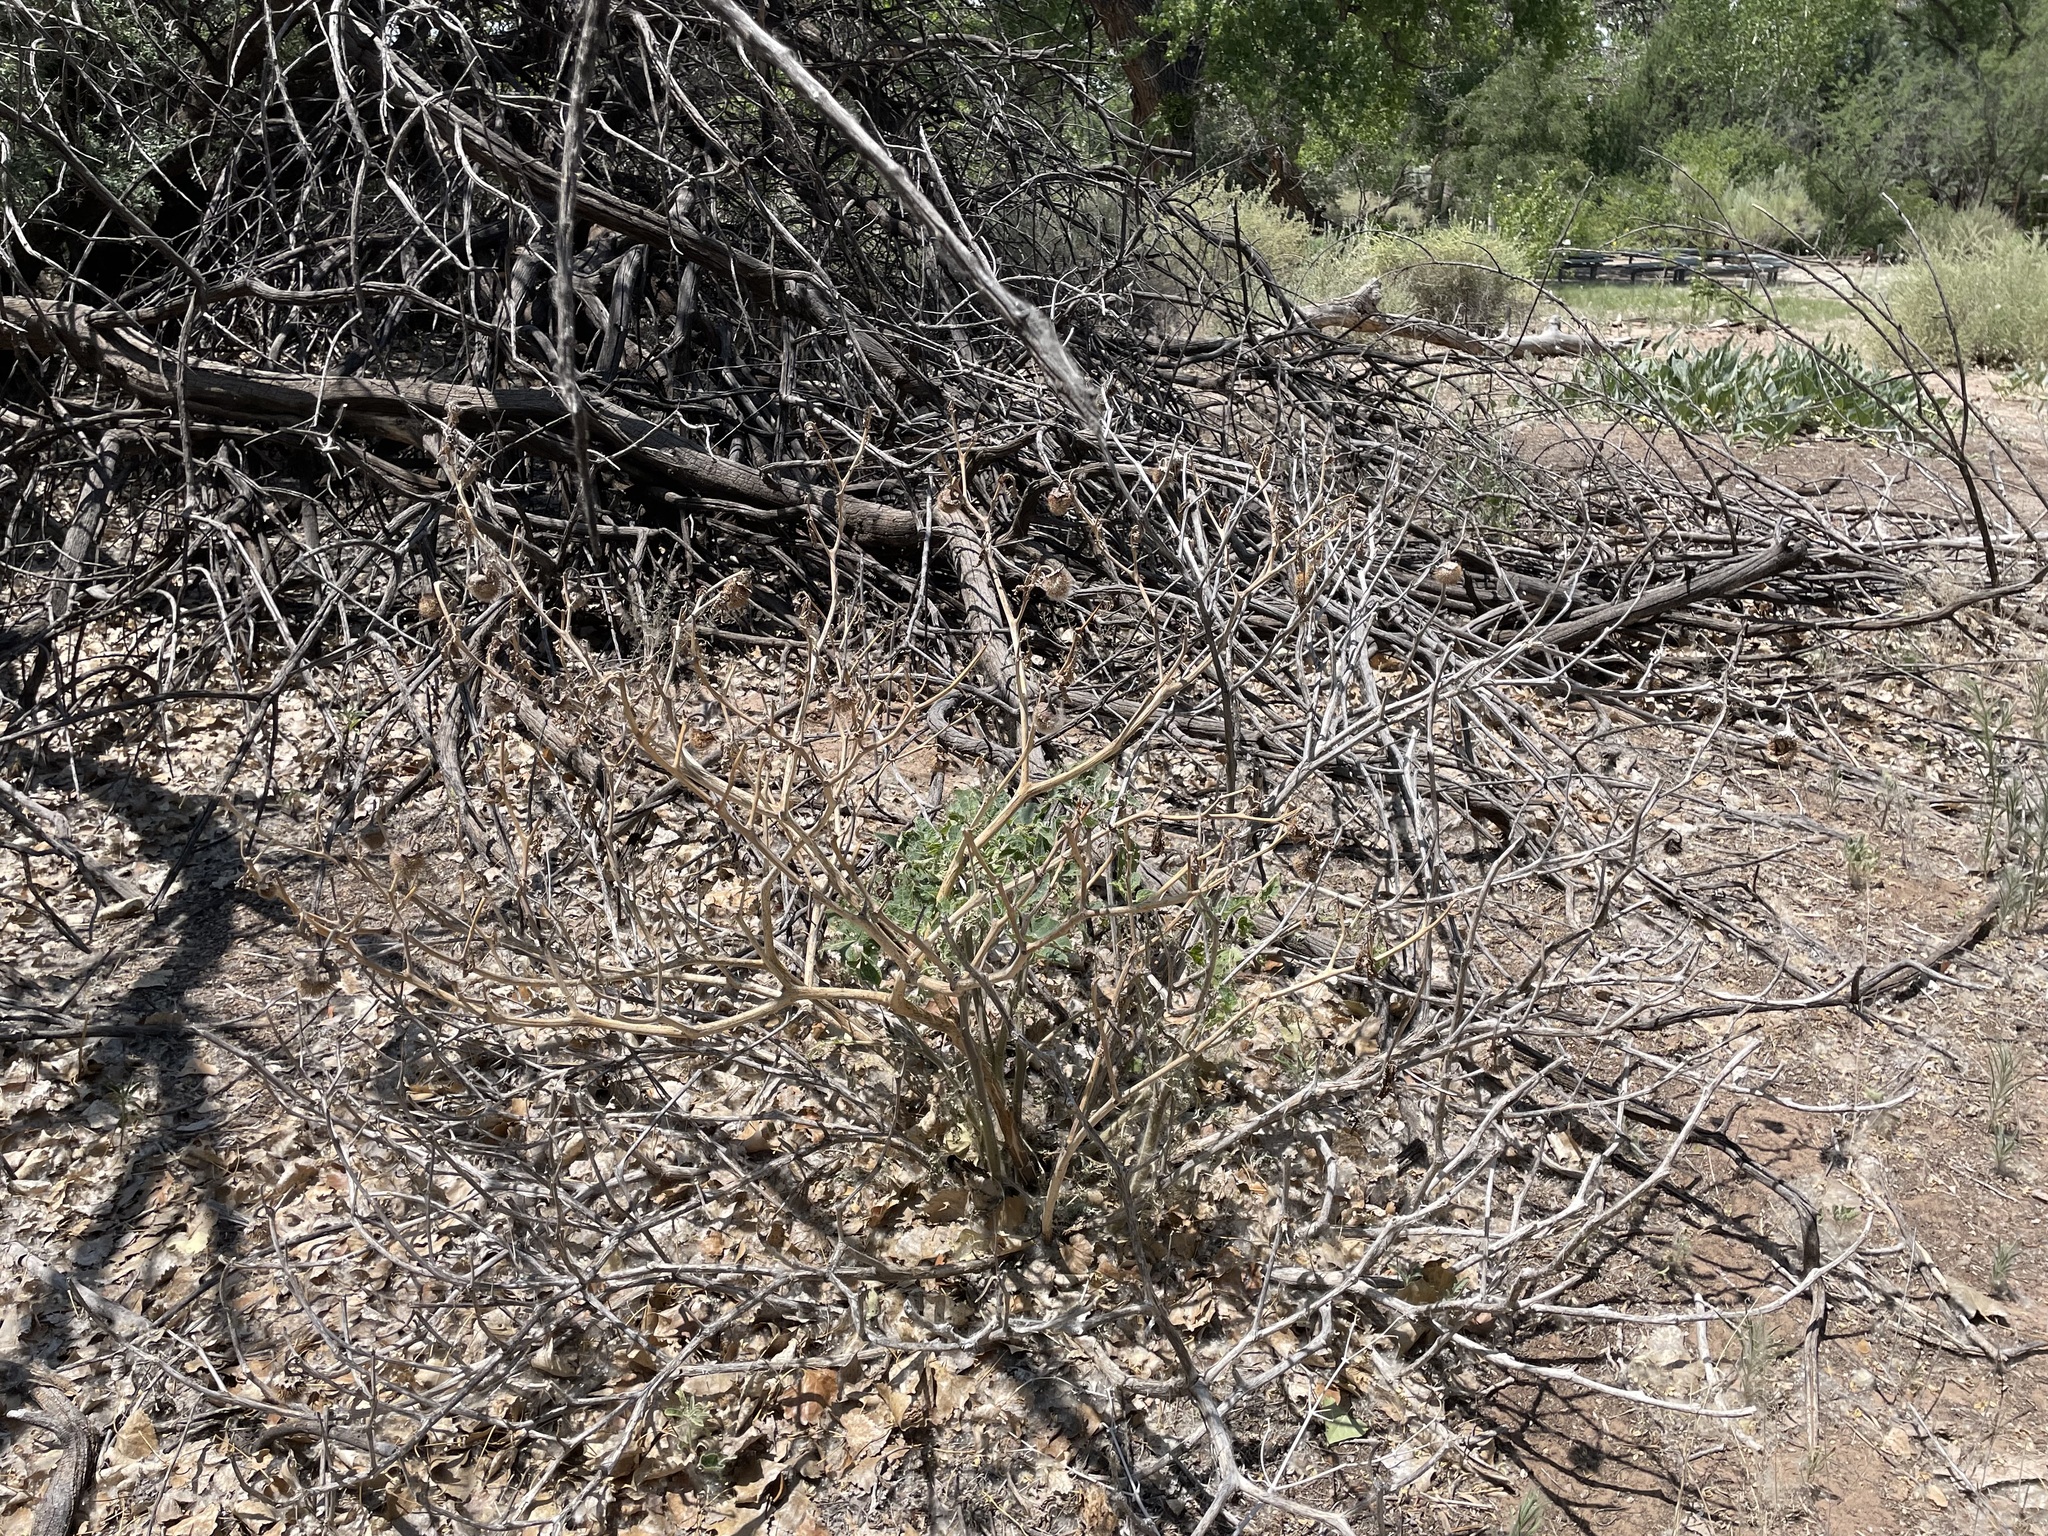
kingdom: Plantae
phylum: Tracheophyta
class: Magnoliopsida
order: Solanales
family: Solanaceae
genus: Datura
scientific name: Datura wrightii
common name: Sacred thorn-apple
